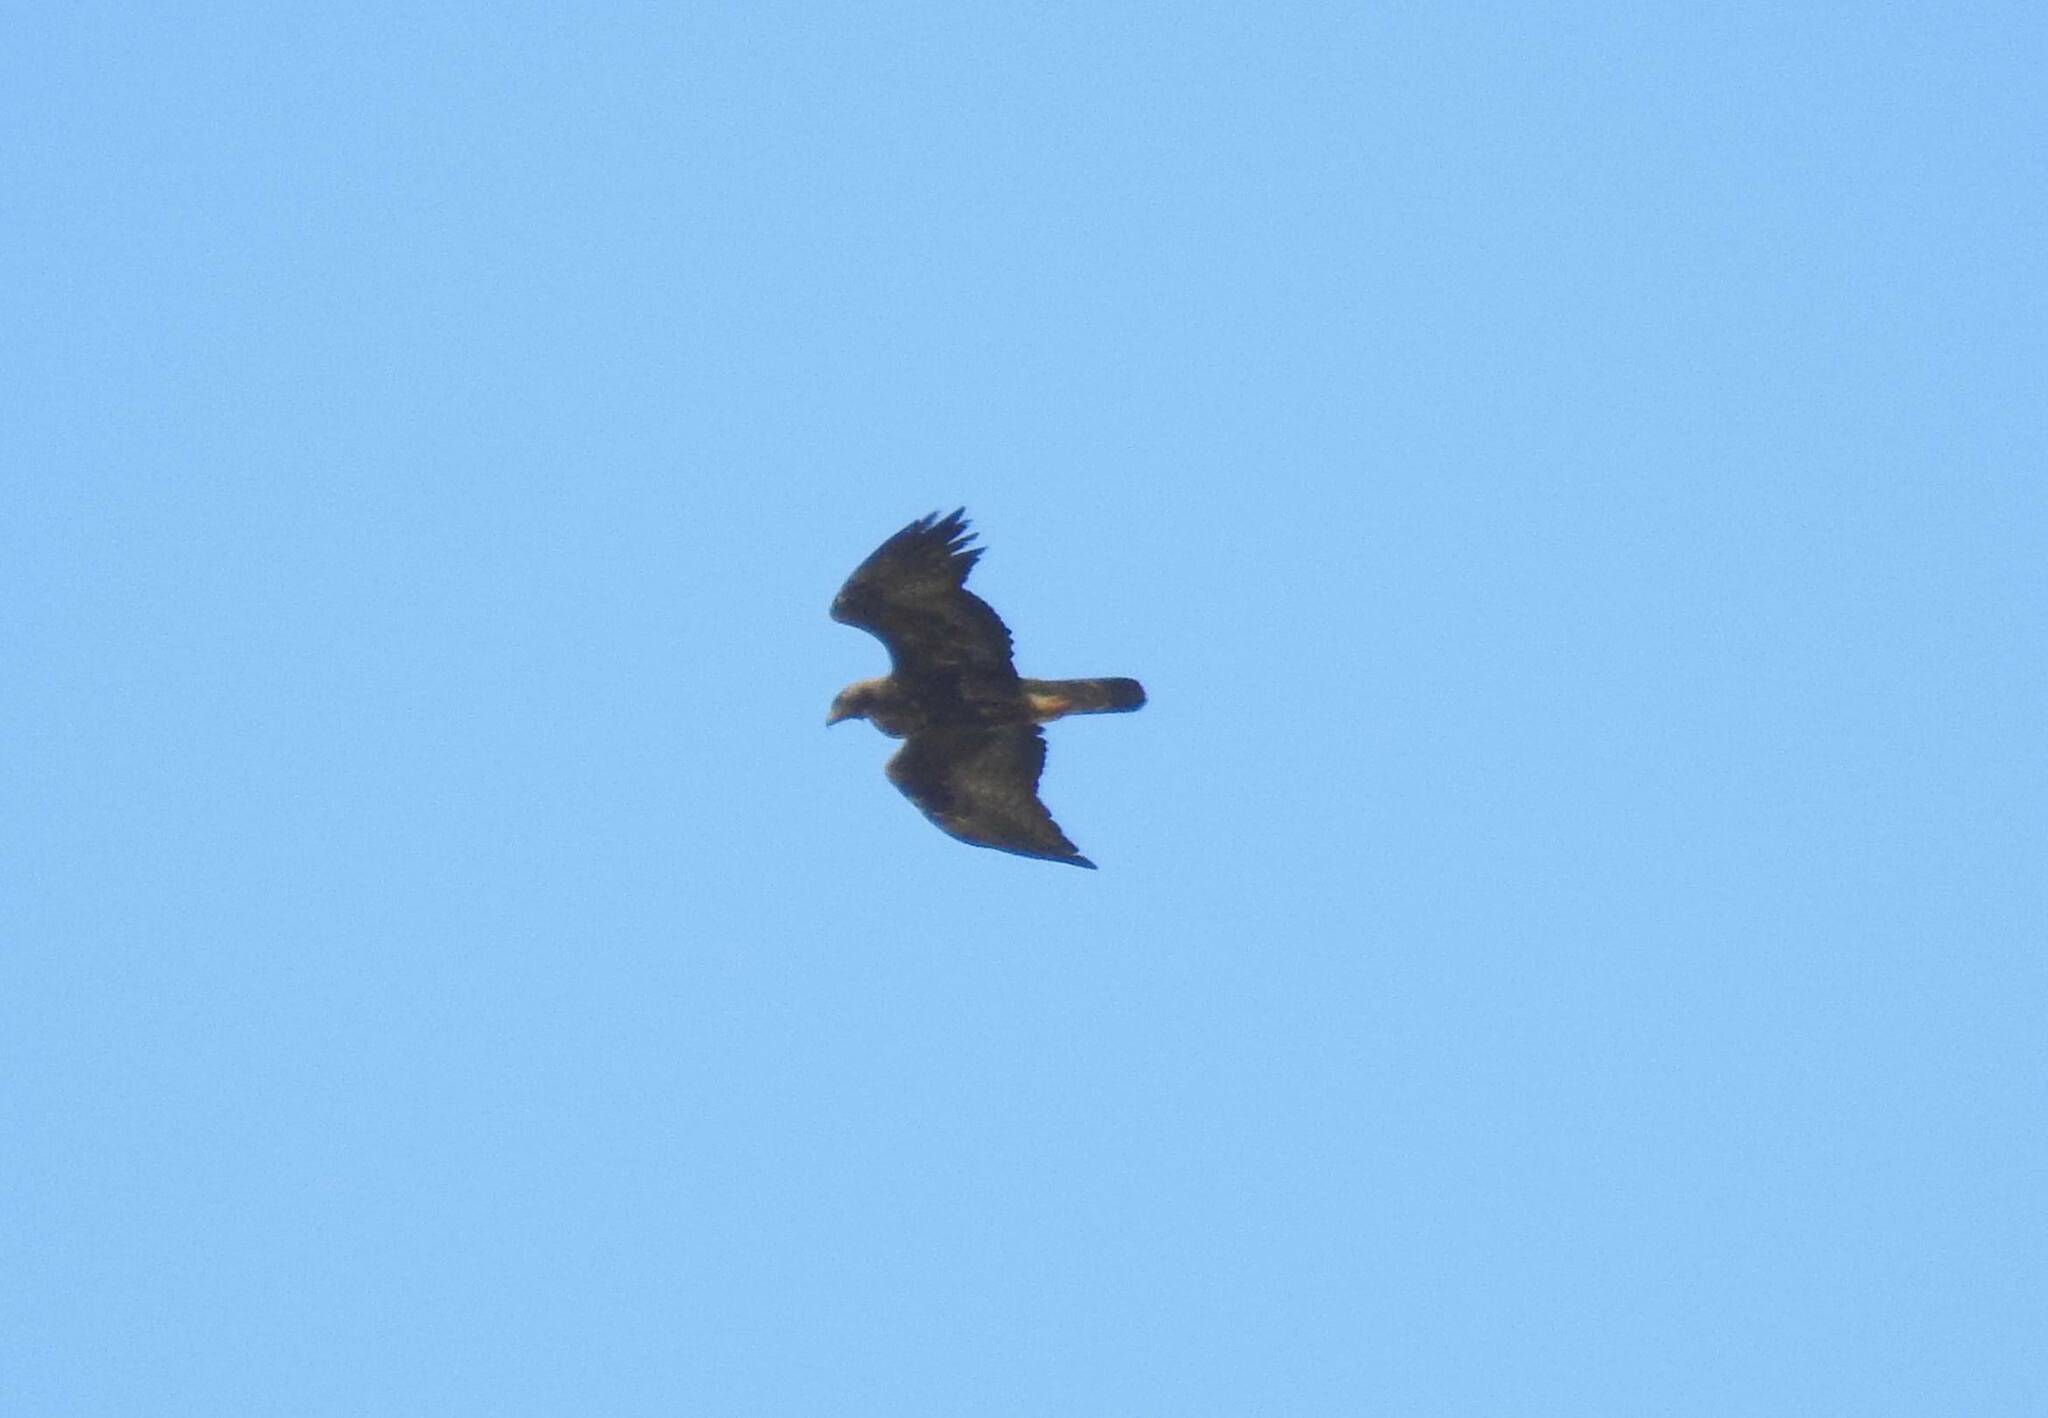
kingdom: Animalia
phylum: Chordata
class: Aves
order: Accipitriformes
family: Accipitridae
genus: Aquila
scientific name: Aquila chrysaetos
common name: Golden eagle
